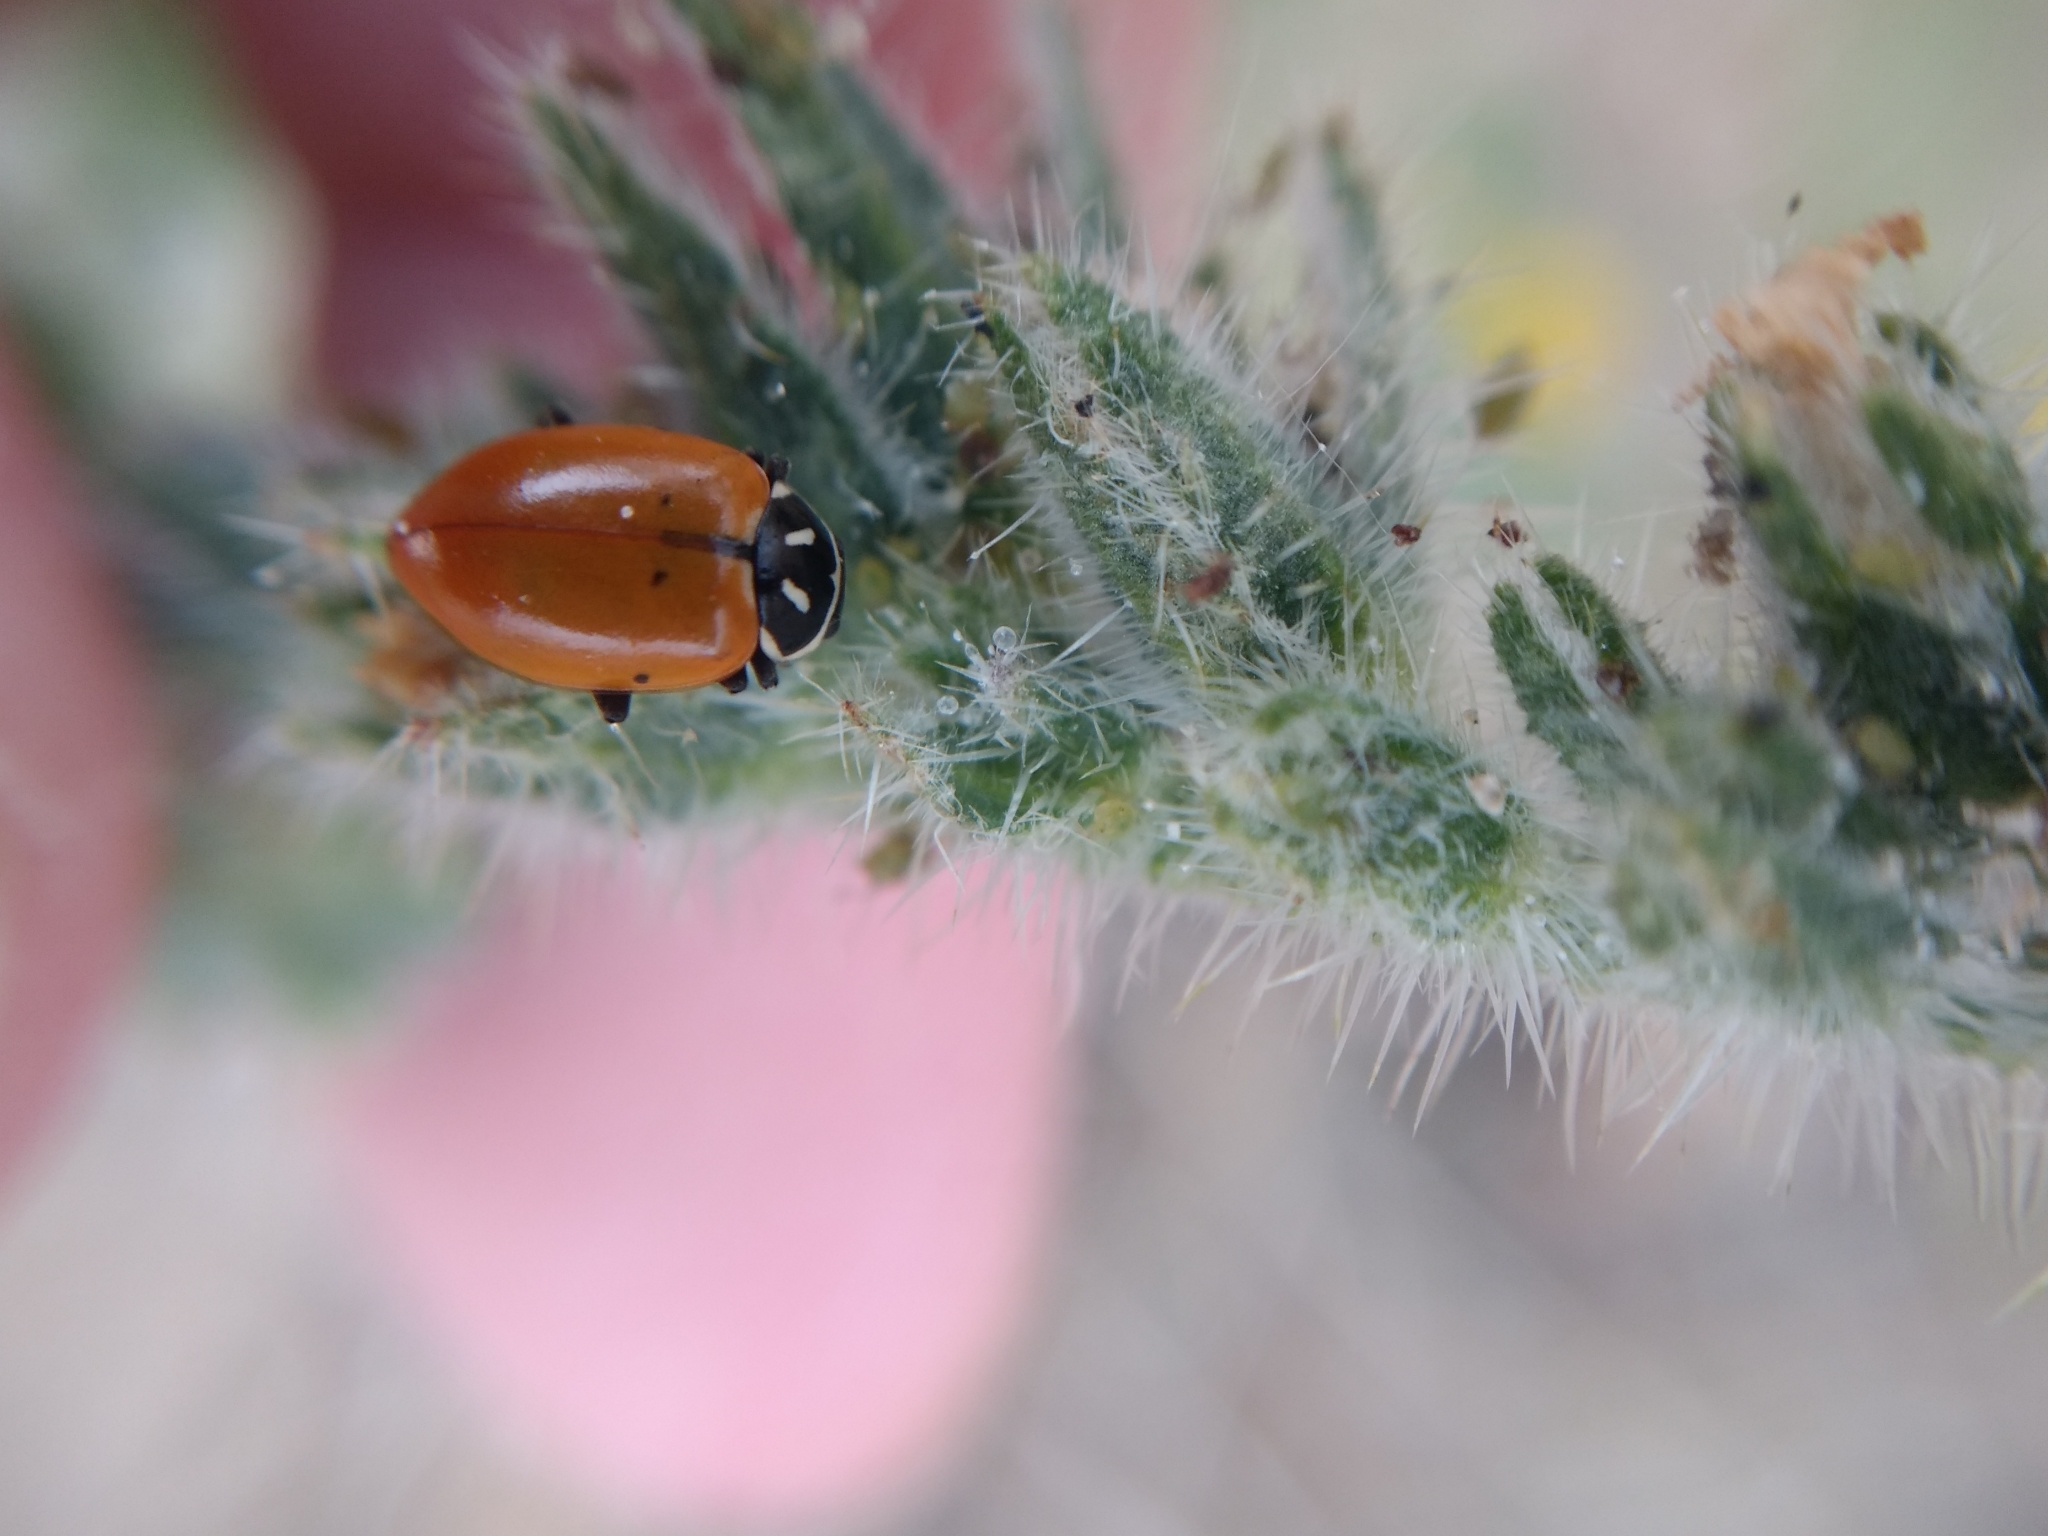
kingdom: Animalia
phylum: Arthropoda
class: Insecta
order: Coleoptera
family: Coccinellidae
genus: Hippodamia
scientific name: Hippodamia convergens
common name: Convergent lady beetle
